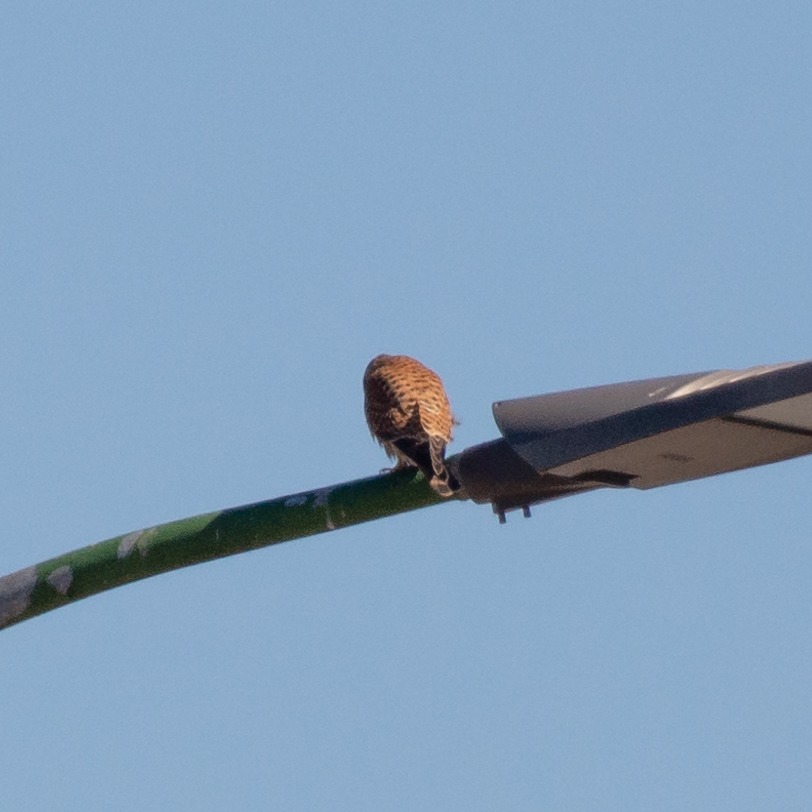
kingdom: Animalia
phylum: Chordata
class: Aves
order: Falconiformes
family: Falconidae
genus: Falco
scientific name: Falco tinnunculus
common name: Common kestrel
